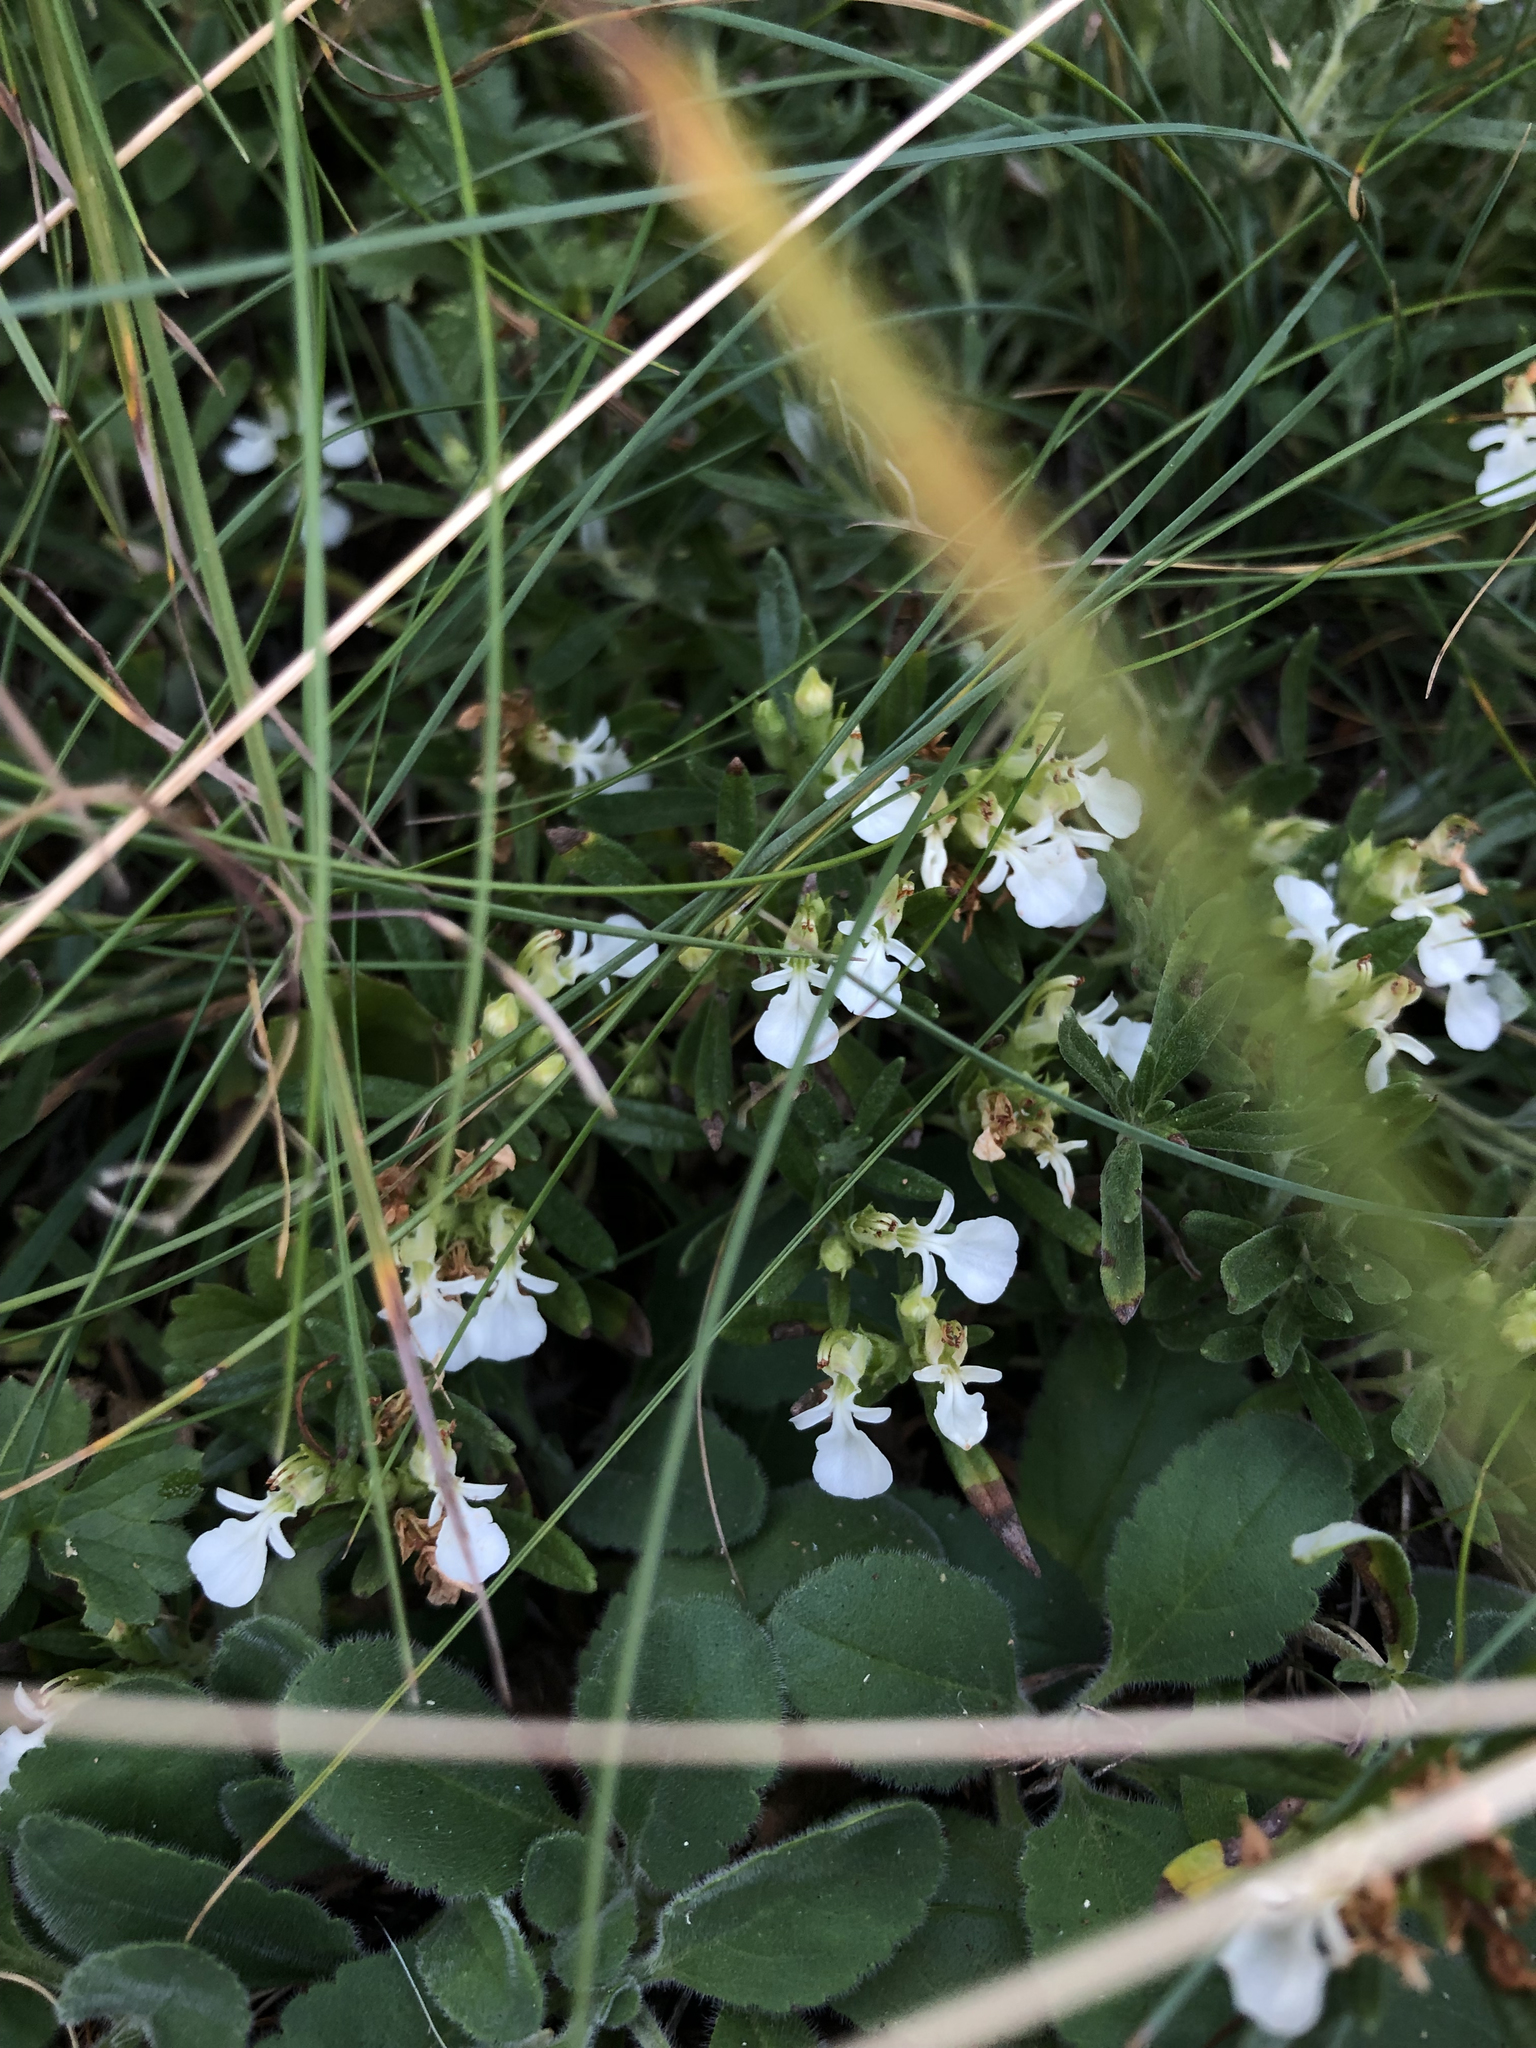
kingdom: Plantae
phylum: Tracheophyta
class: Magnoliopsida
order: Lamiales
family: Lamiaceae
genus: Teucrium
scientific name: Teucrium montanum
